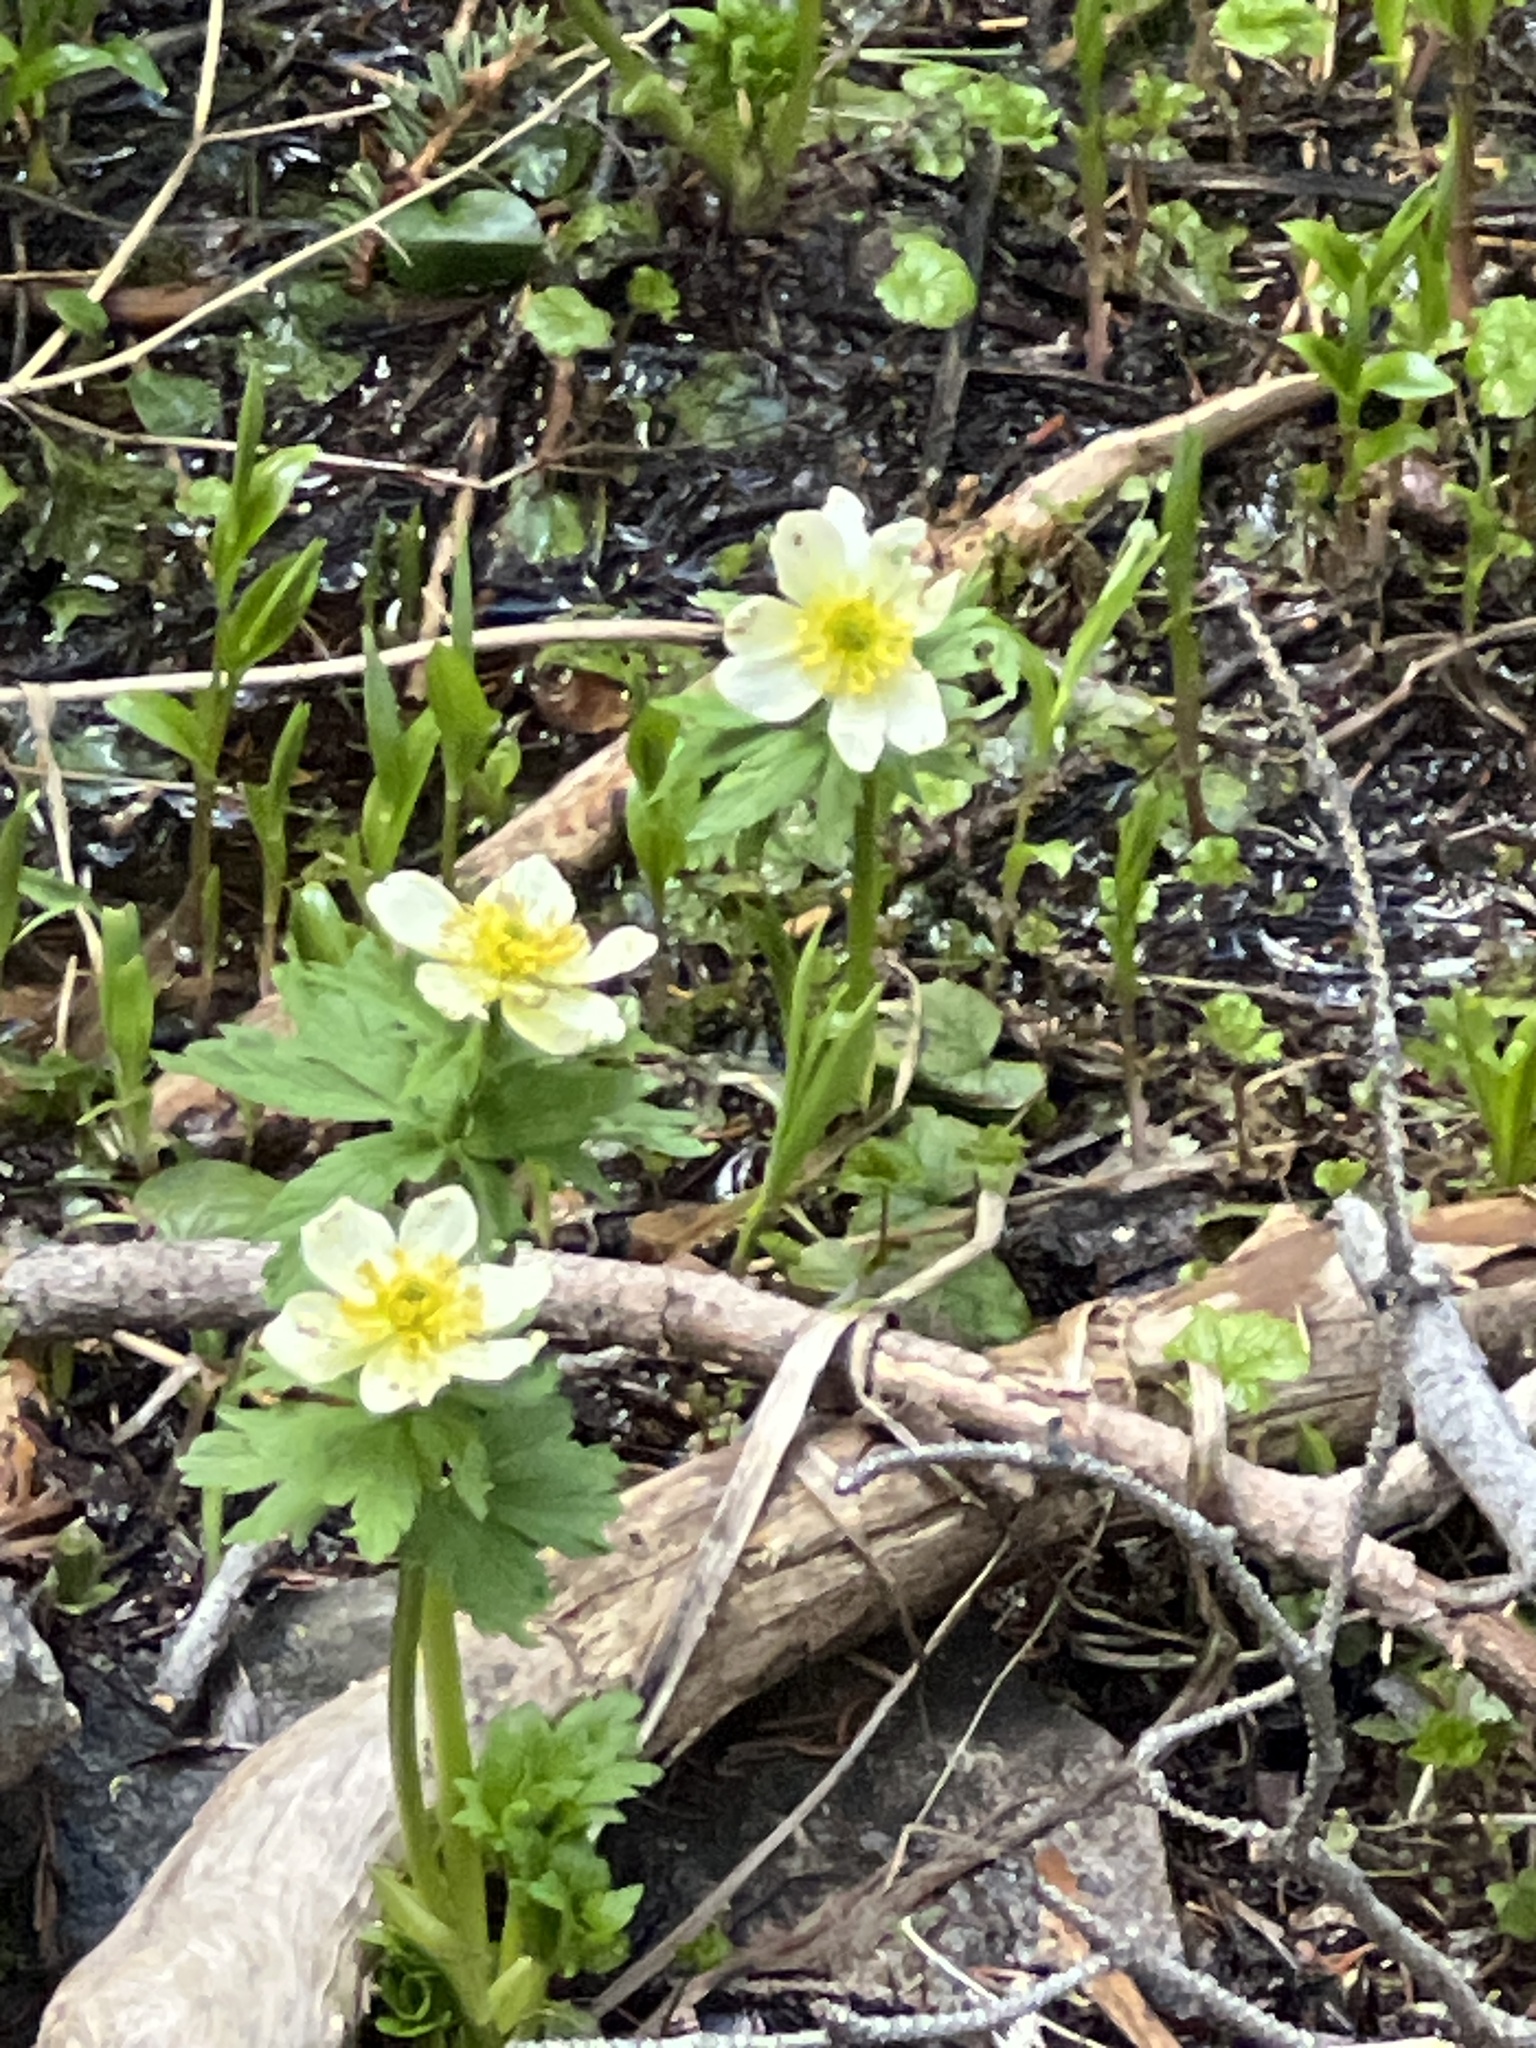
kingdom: Plantae
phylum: Tracheophyta
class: Magnoliopsida
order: Ranunculales
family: Ranunculaceae
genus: Trollius
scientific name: Trollius laxus
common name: American globeflower
